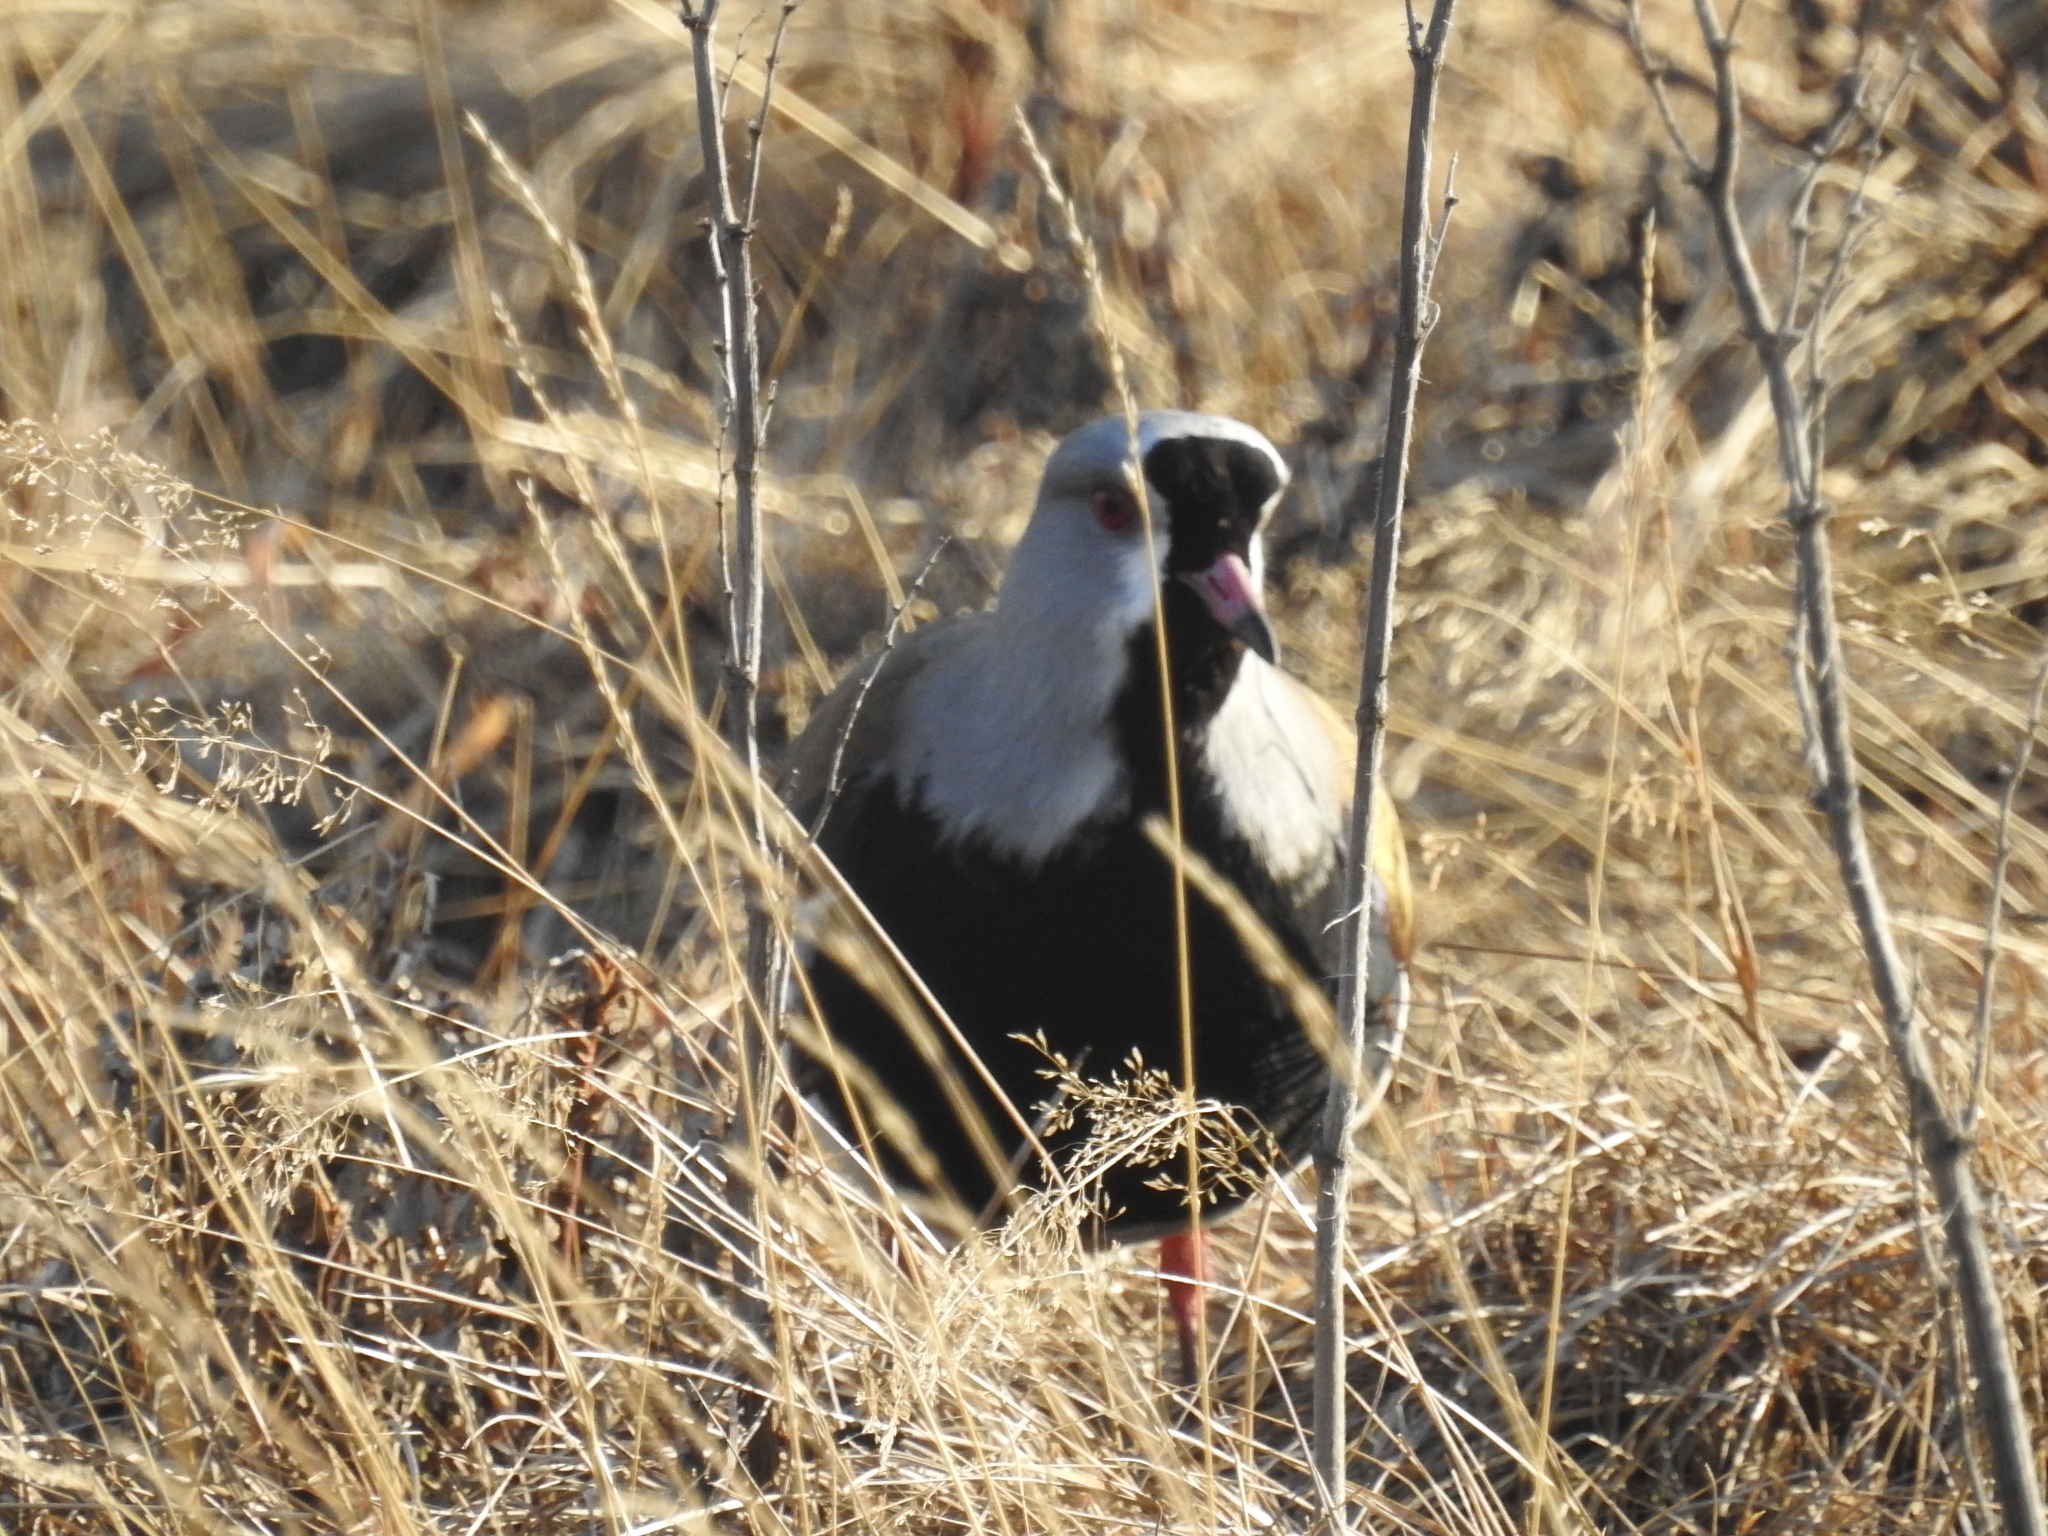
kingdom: Animalia
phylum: Chordata
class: Aves
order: Charadriiformes
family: Charadriidae
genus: Vanellus
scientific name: Vanellus chilensis
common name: Southern lapwing
